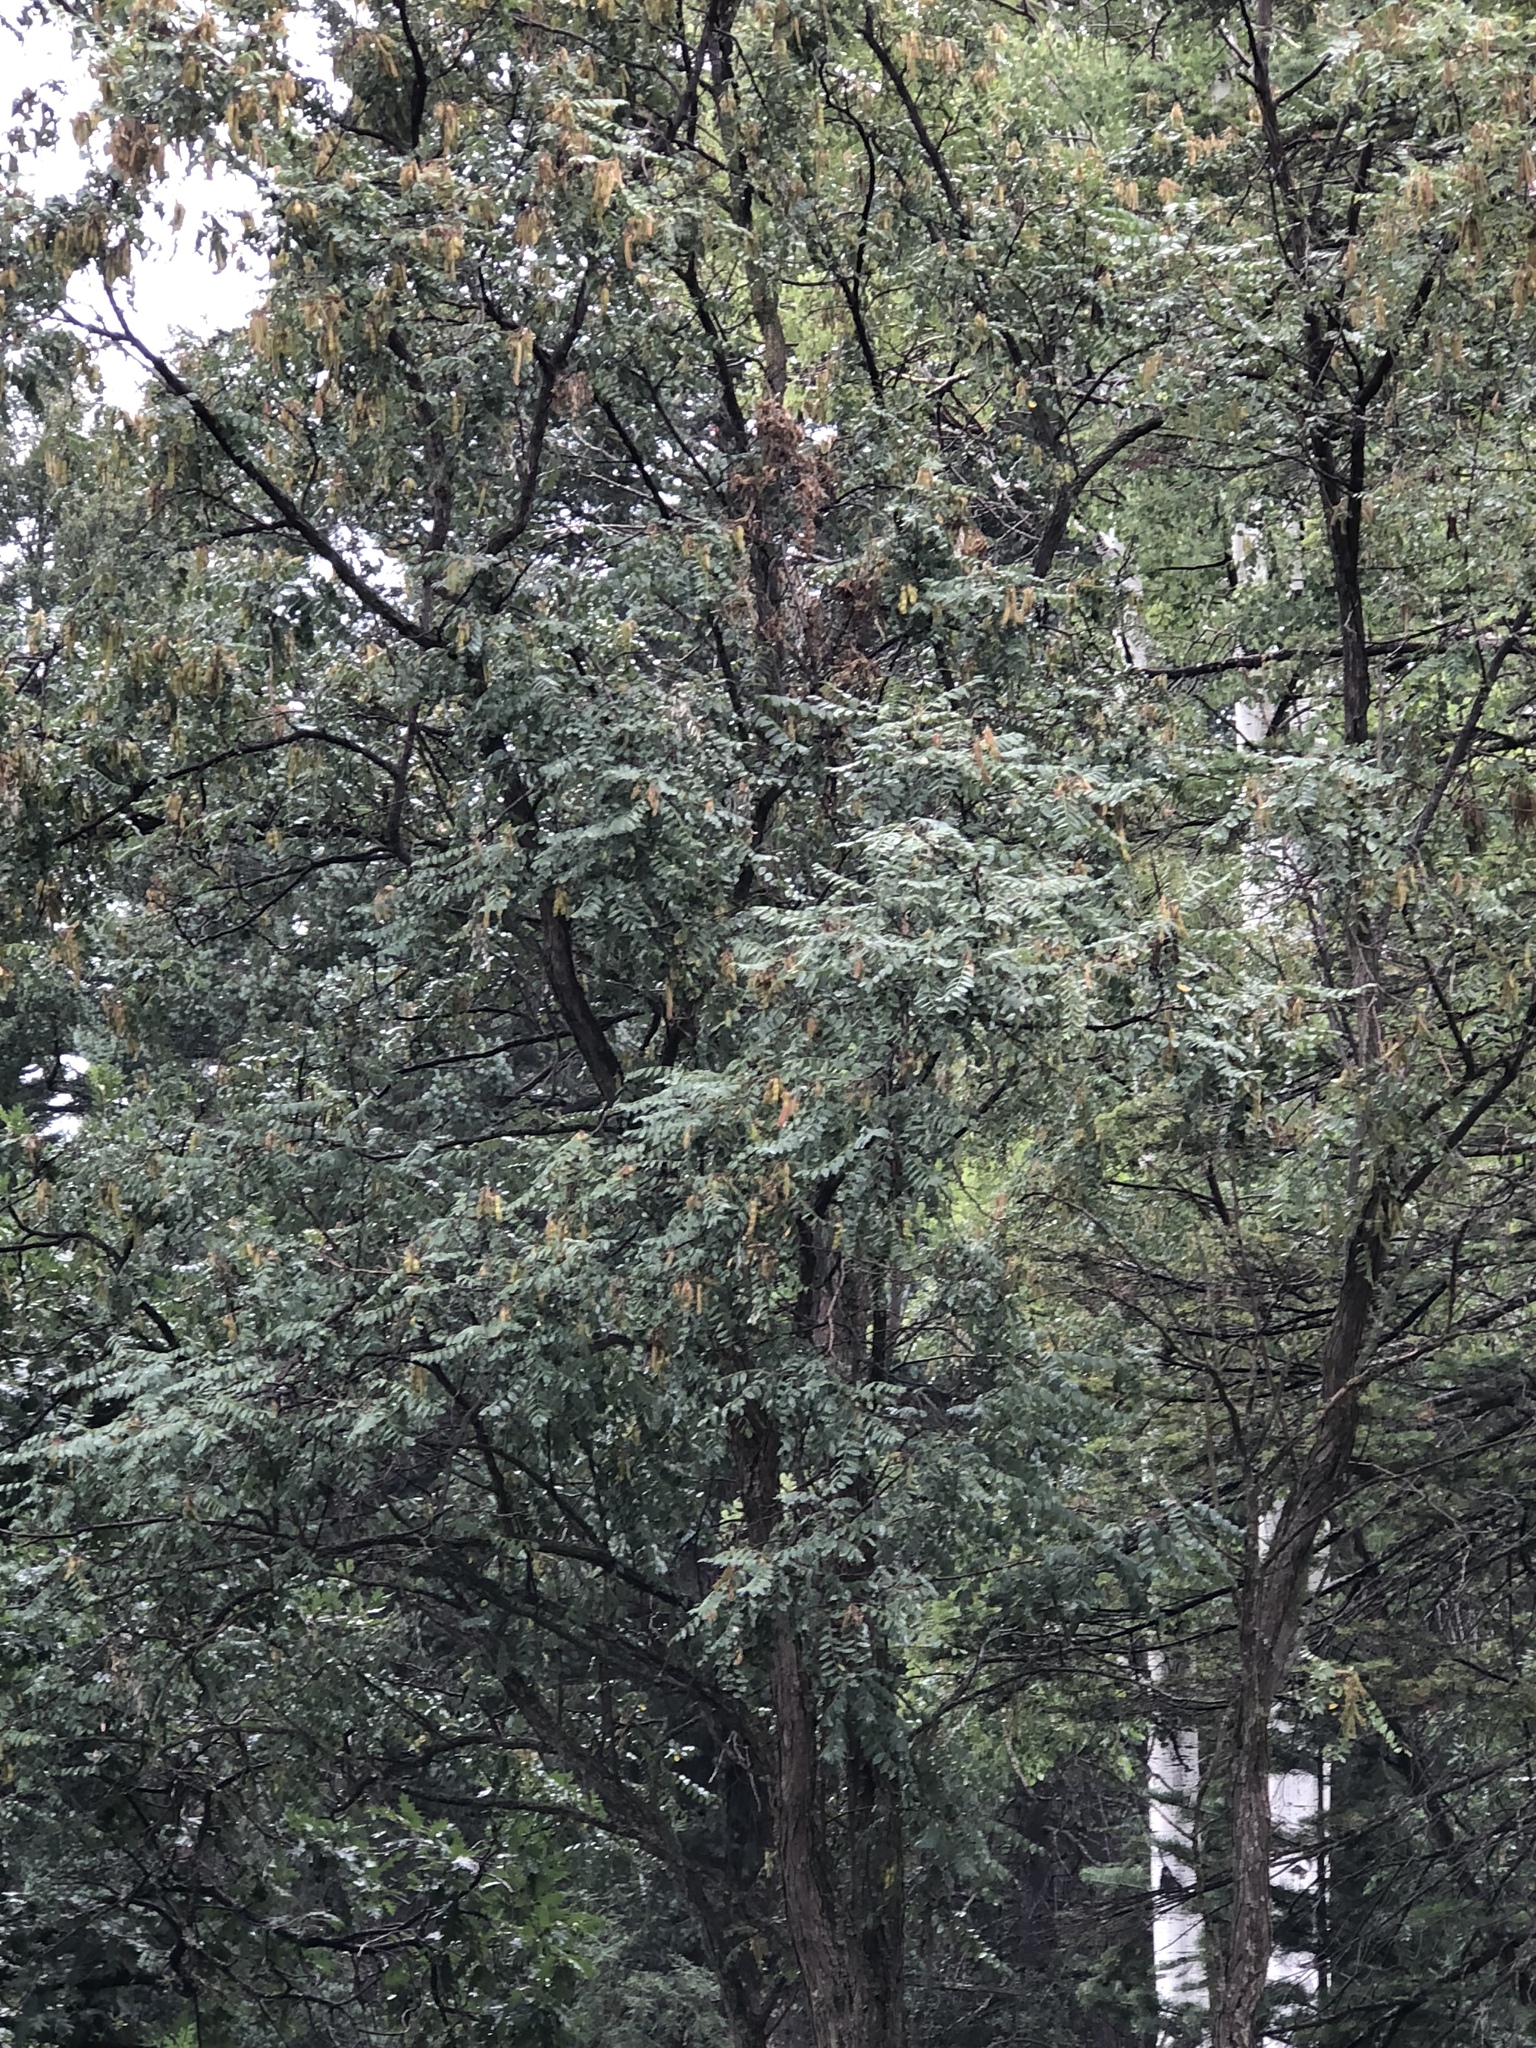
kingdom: Plantae
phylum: Tracheophyta
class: Magnoliopsida
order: Fabales
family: Fabaceae
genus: Robinia
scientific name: Robinia neomexicana
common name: New mexico locust
